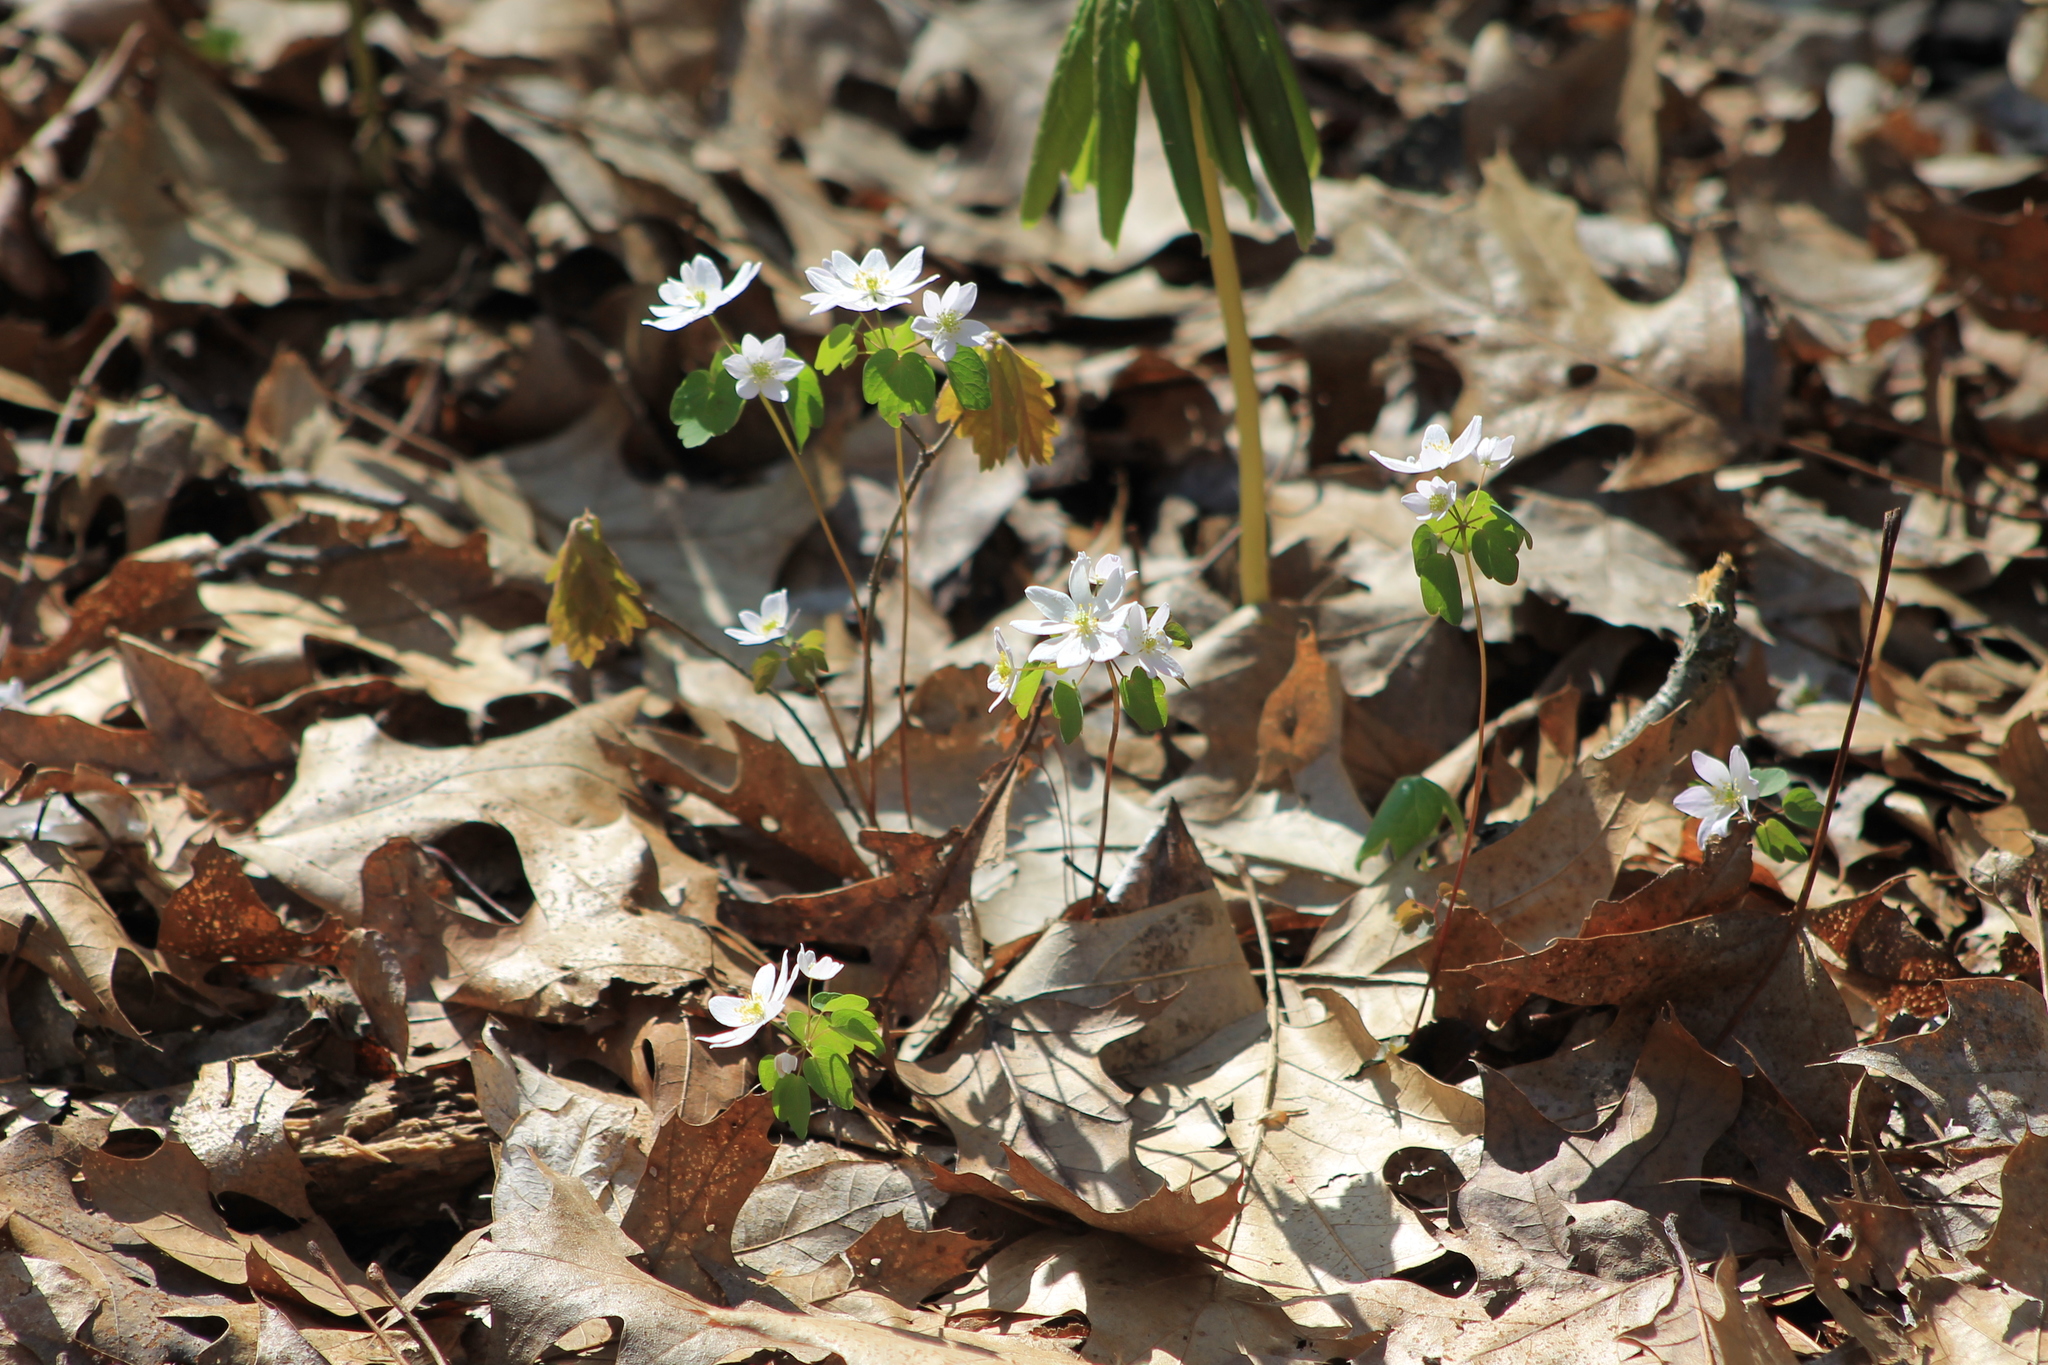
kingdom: Plantae
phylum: Tracheophyta
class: Magnoliopsida
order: Ranunculales
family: Ranunculaceae
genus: Thalictrum
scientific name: Thalictrum thalictroides
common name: Rue-anemone
